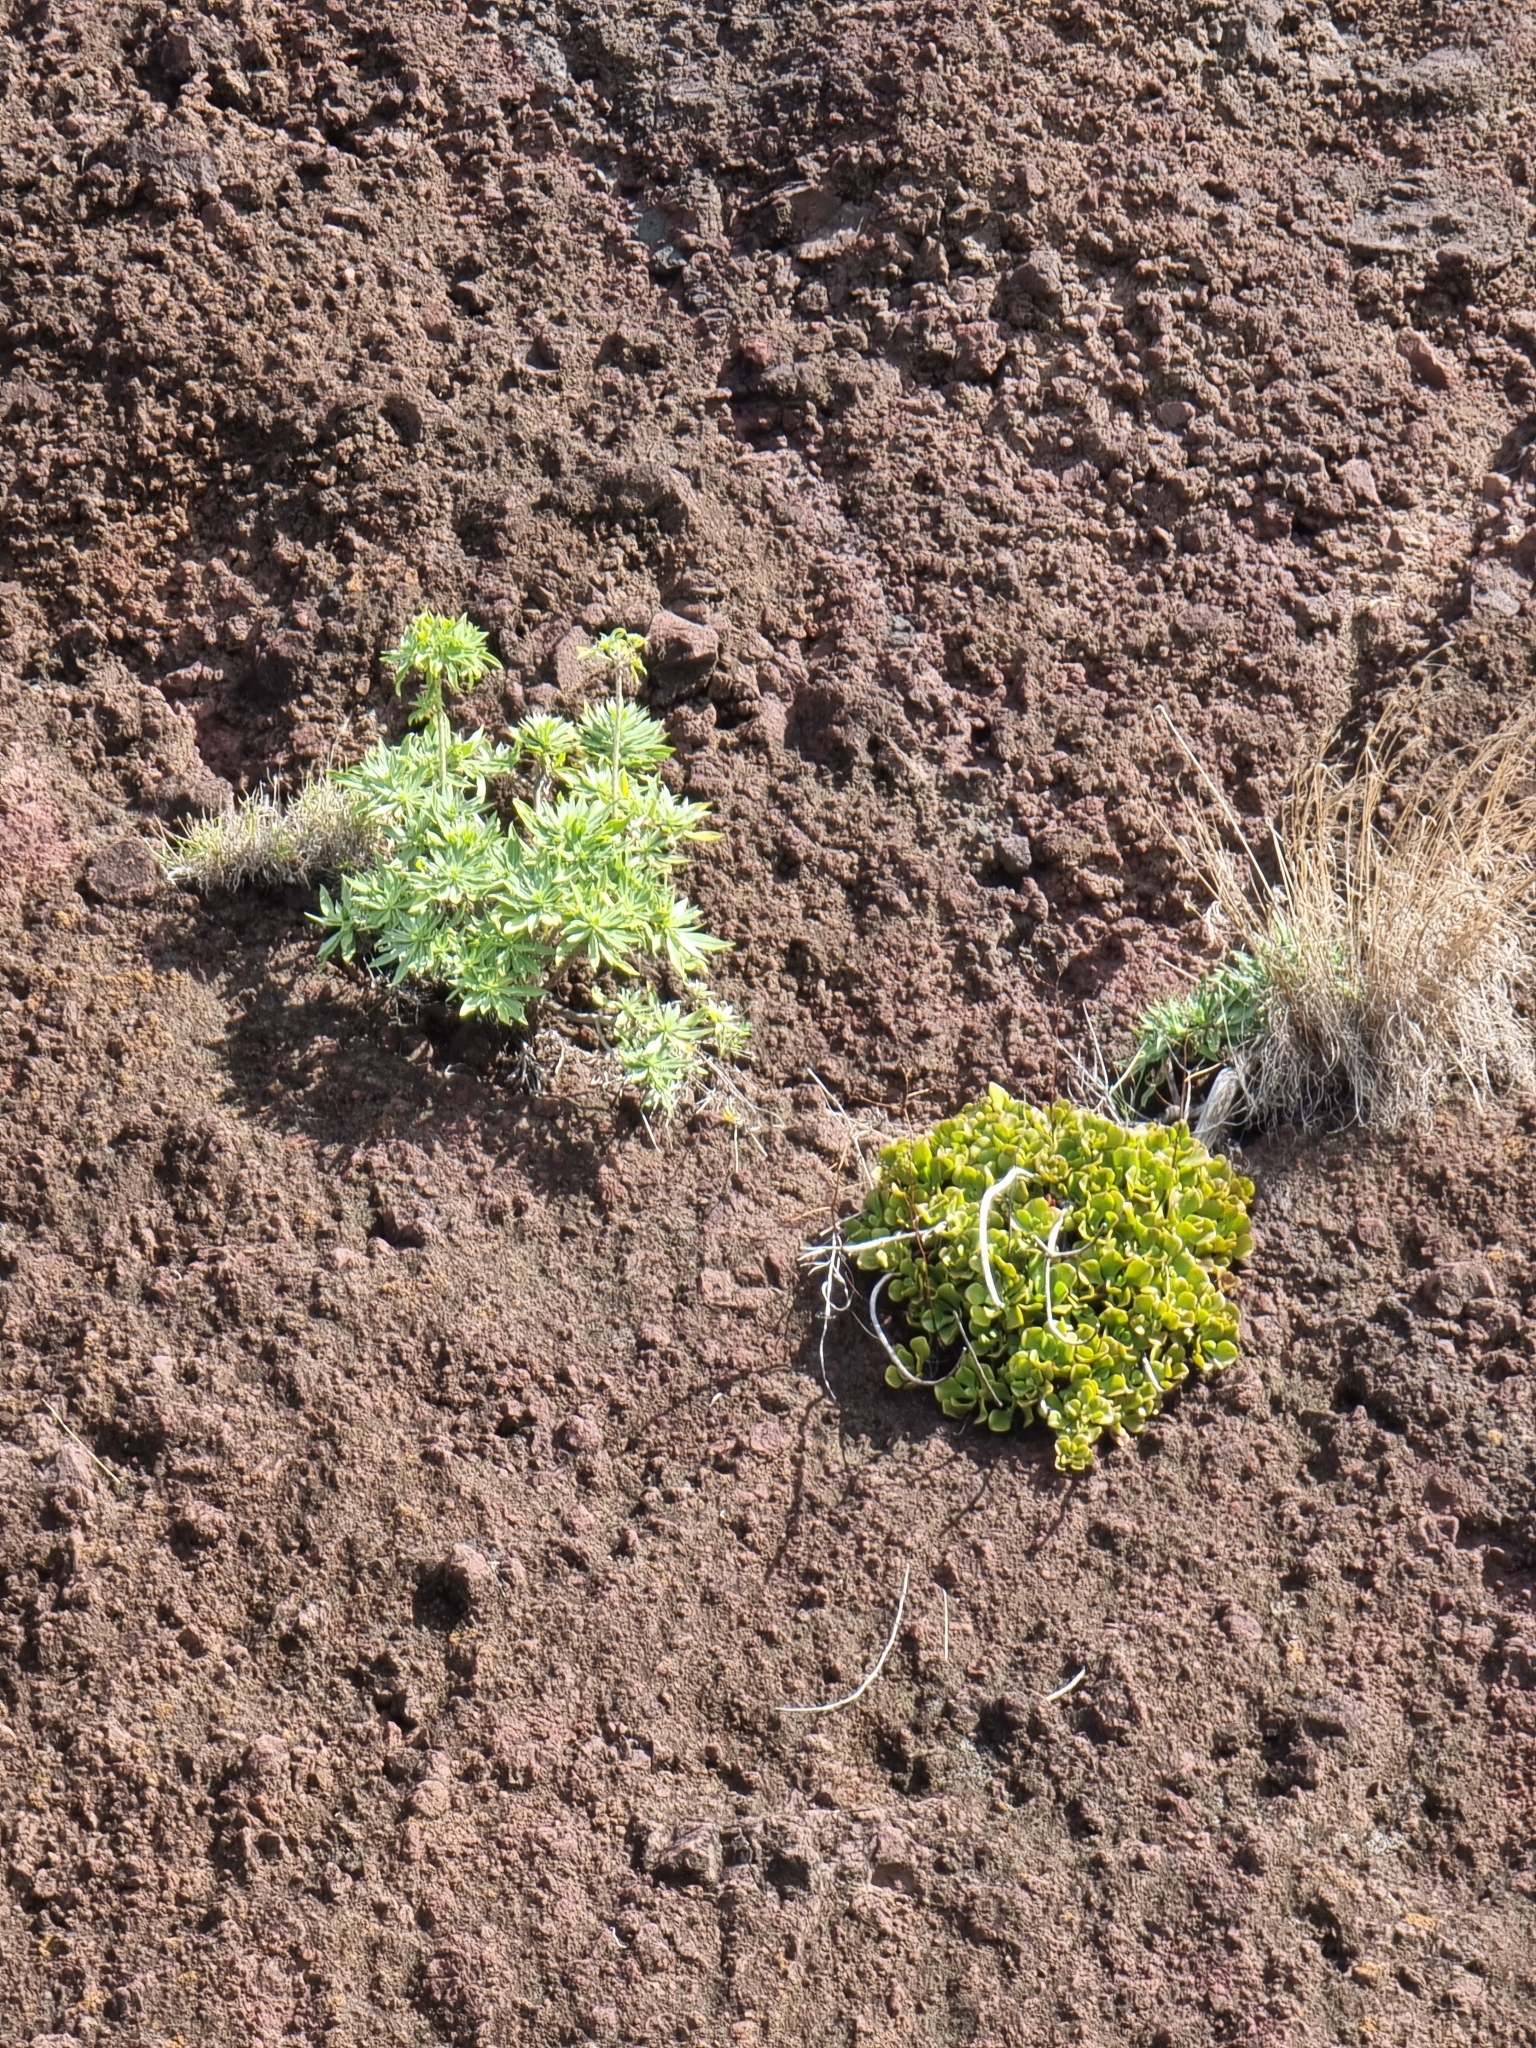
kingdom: Plantae
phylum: Tracheophyta
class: Magnoliopsida
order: Boraginales
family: Boraginaceae
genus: Echium
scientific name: Echium nervosum
